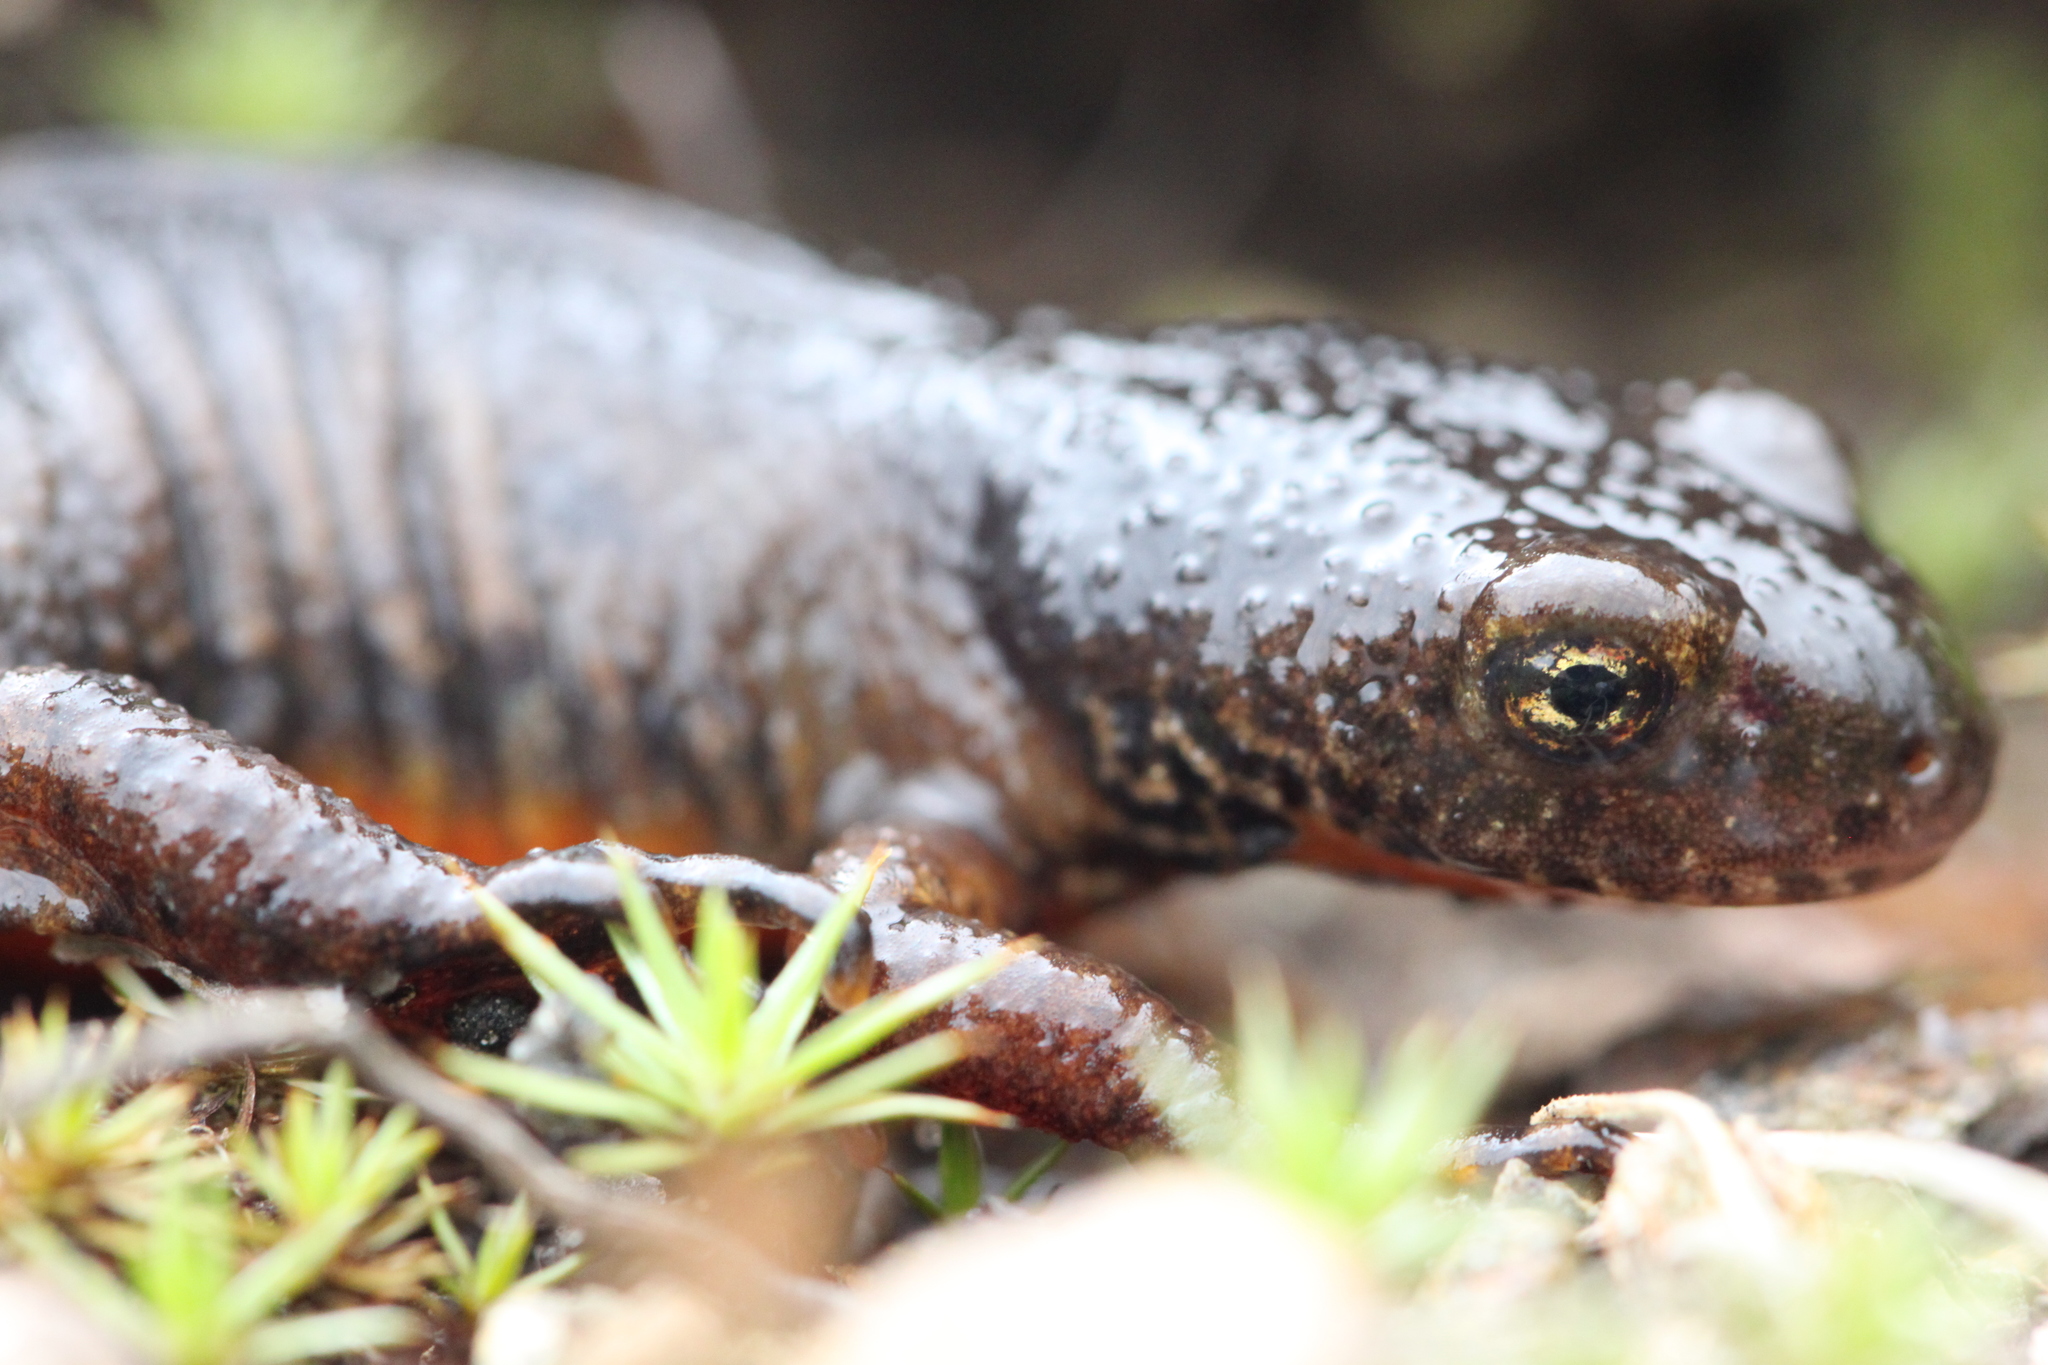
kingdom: Animalia
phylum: Chordata
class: Amphibia
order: Caudata
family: Salamandridae
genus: Ichthyosaura
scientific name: Ichthyosaura alpestris
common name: Alpine newt
